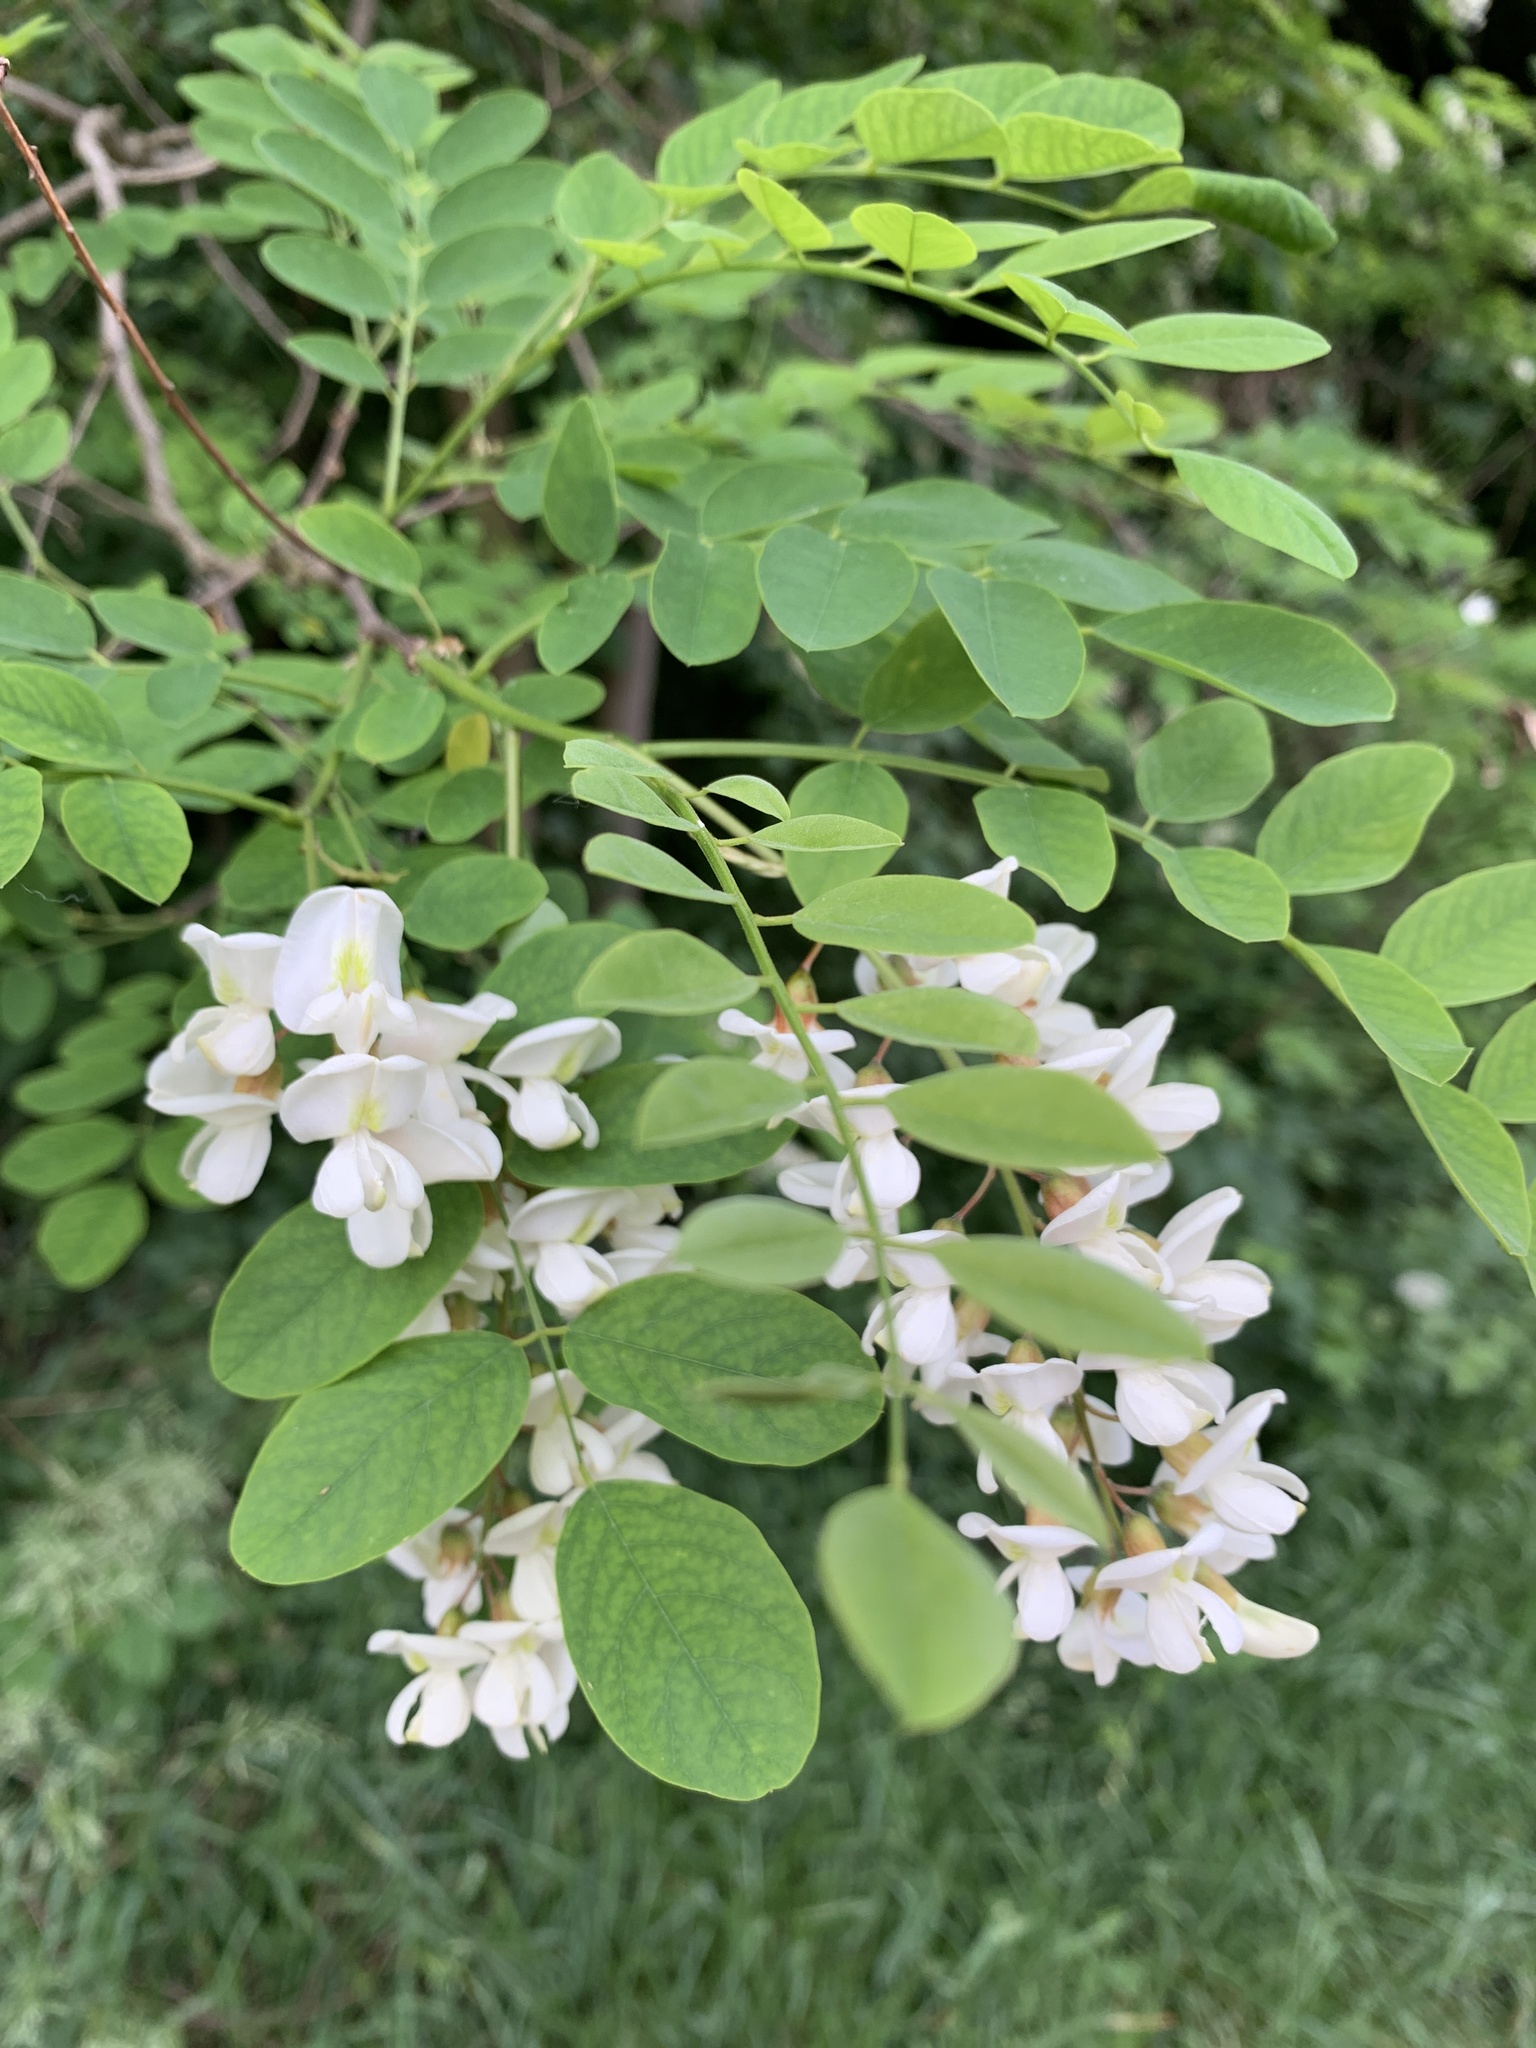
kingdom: Plantae
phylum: Tracheophyta
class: Magnoliopsida
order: Fabales
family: Fabaceae
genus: Robinia
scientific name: Robinia pseudoacacia
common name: Black locust
